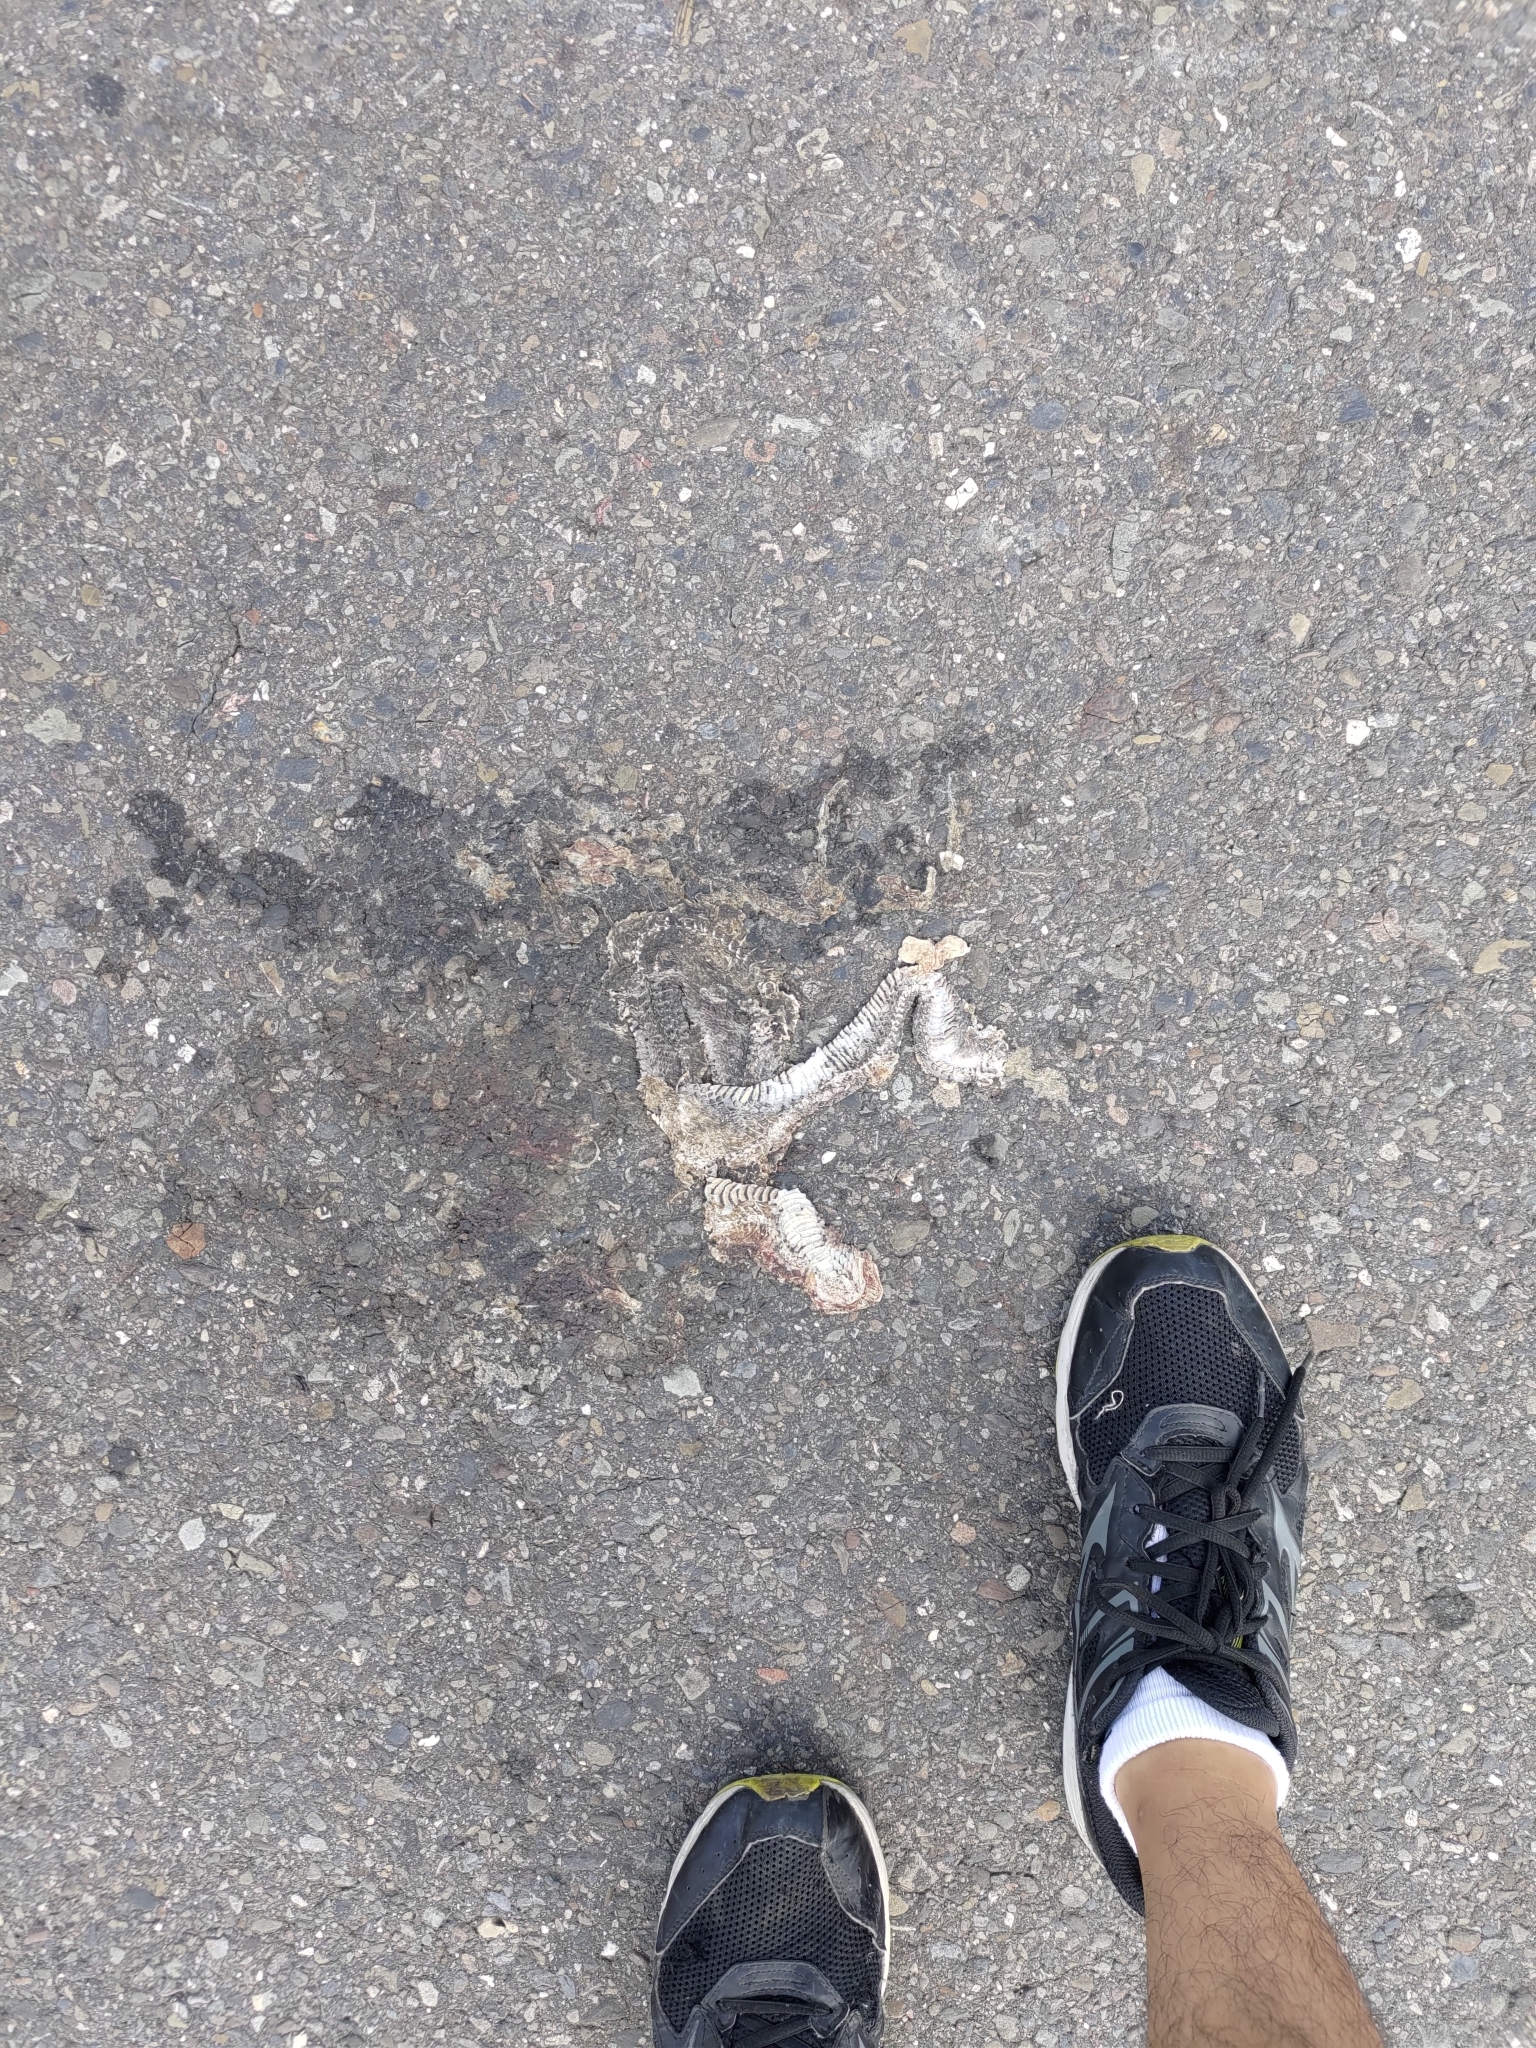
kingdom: Animalia
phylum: Chordata
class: Squamata
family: Colubridae
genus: Fowlea
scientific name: Fowlea flavipunctatus
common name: Yellow-spotted keelback
